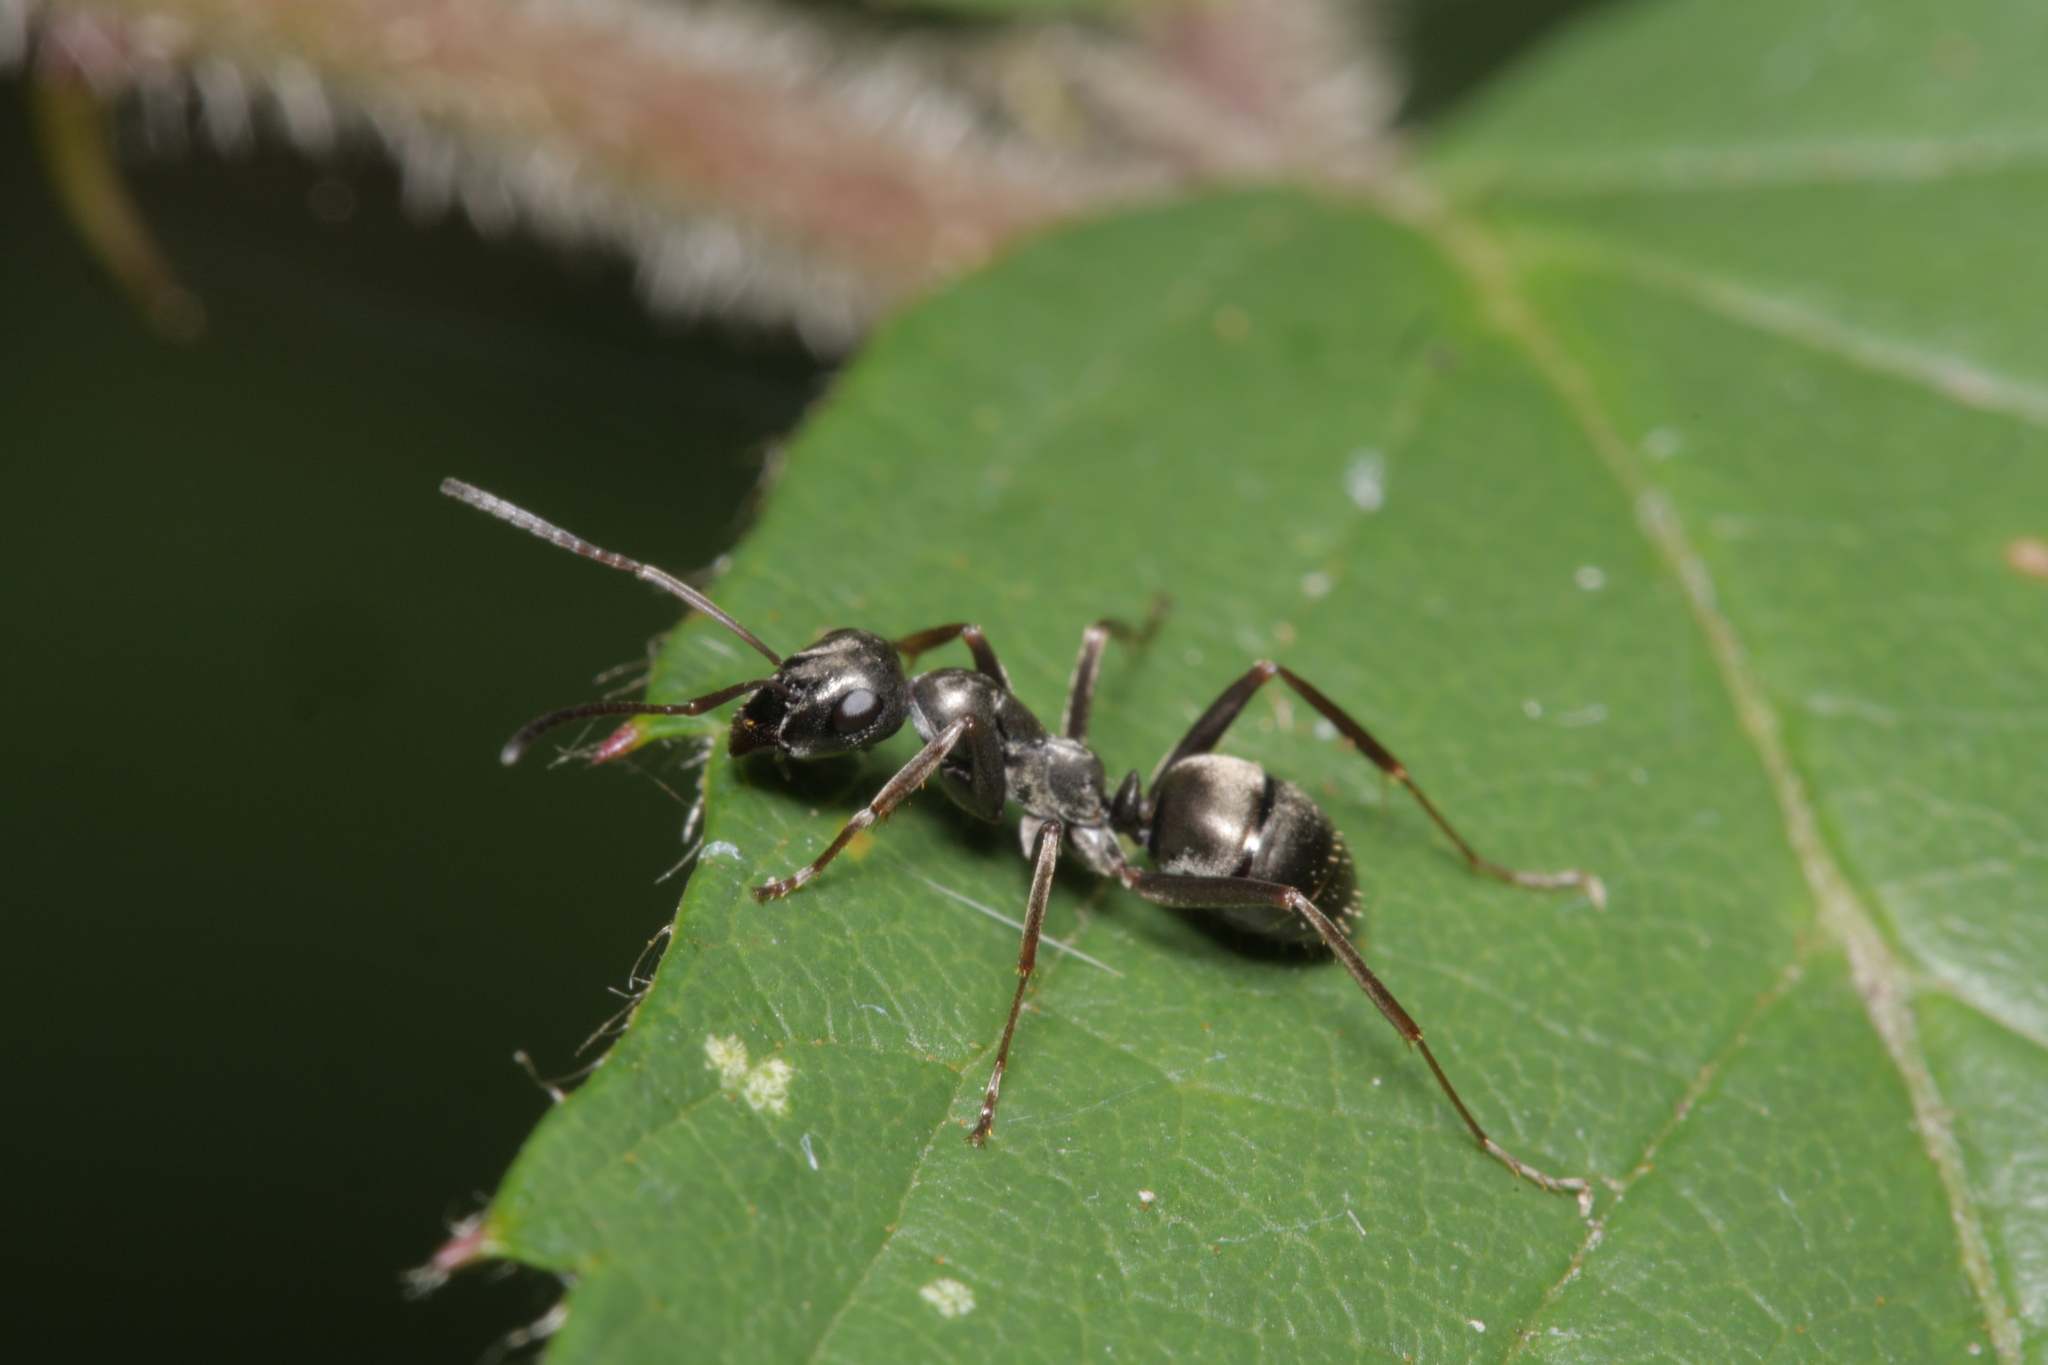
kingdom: Animalia
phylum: Arthropoda
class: Insecta
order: Hymenoptera
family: Formicidae
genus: Formica
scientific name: Formica fusca
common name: Silky ant
